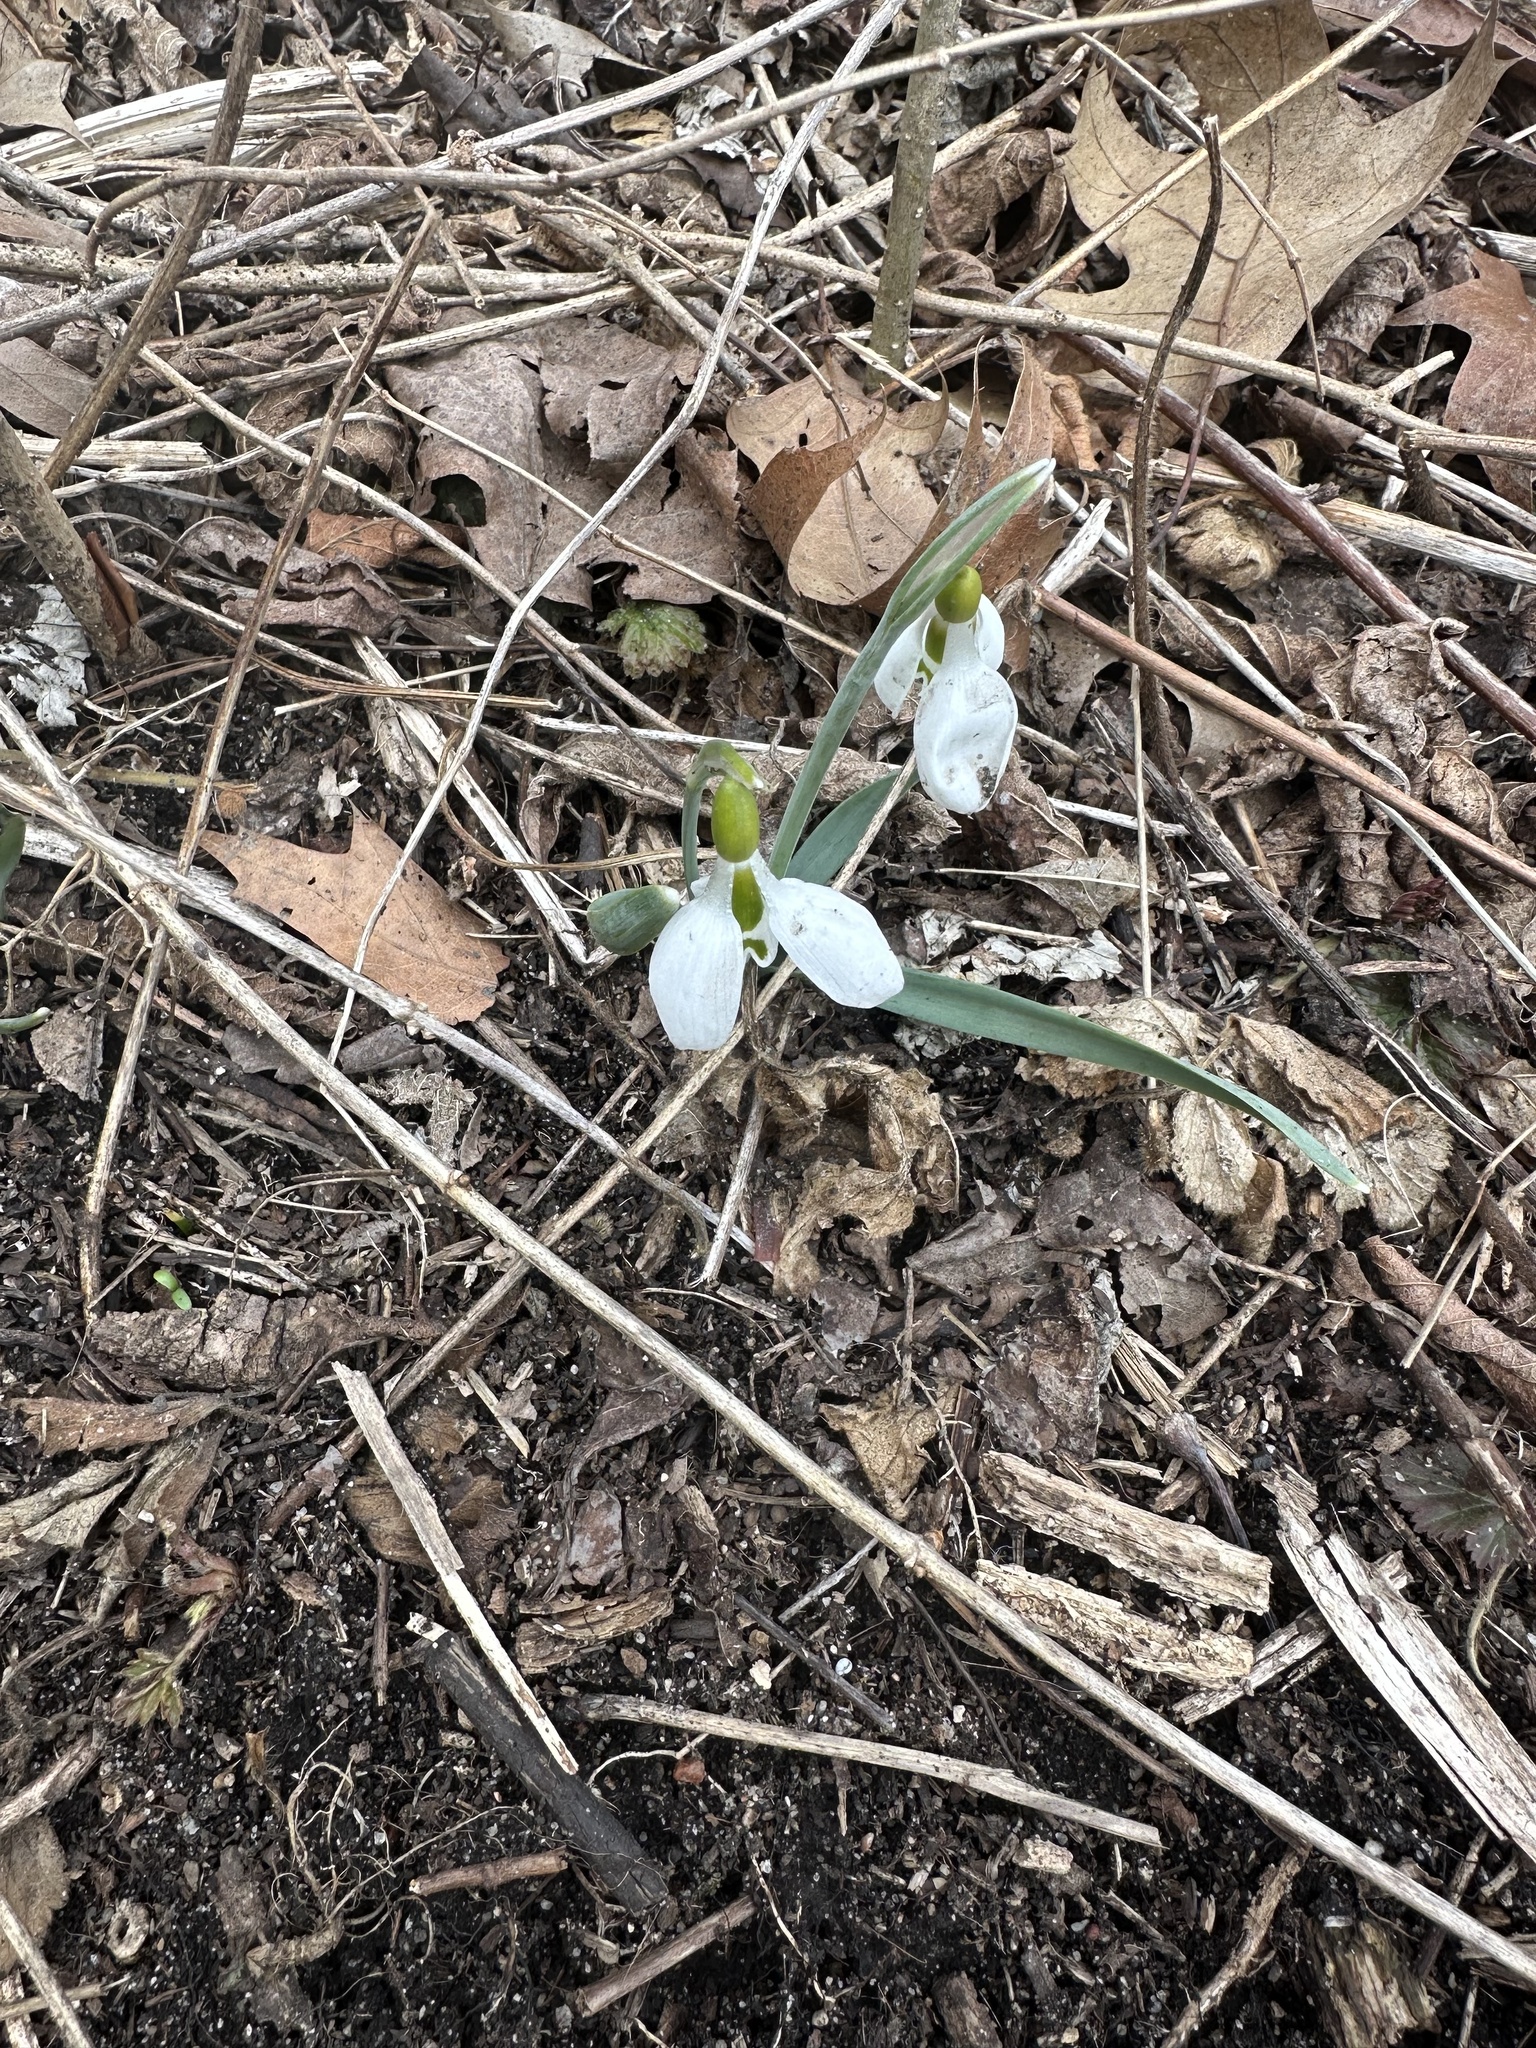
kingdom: Plantae
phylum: Tracheophyta
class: Liliopsida
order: Asparagales
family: Amaryllidaceae
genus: Galanthus
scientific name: Galanthus gracilis
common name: Snowdrop
